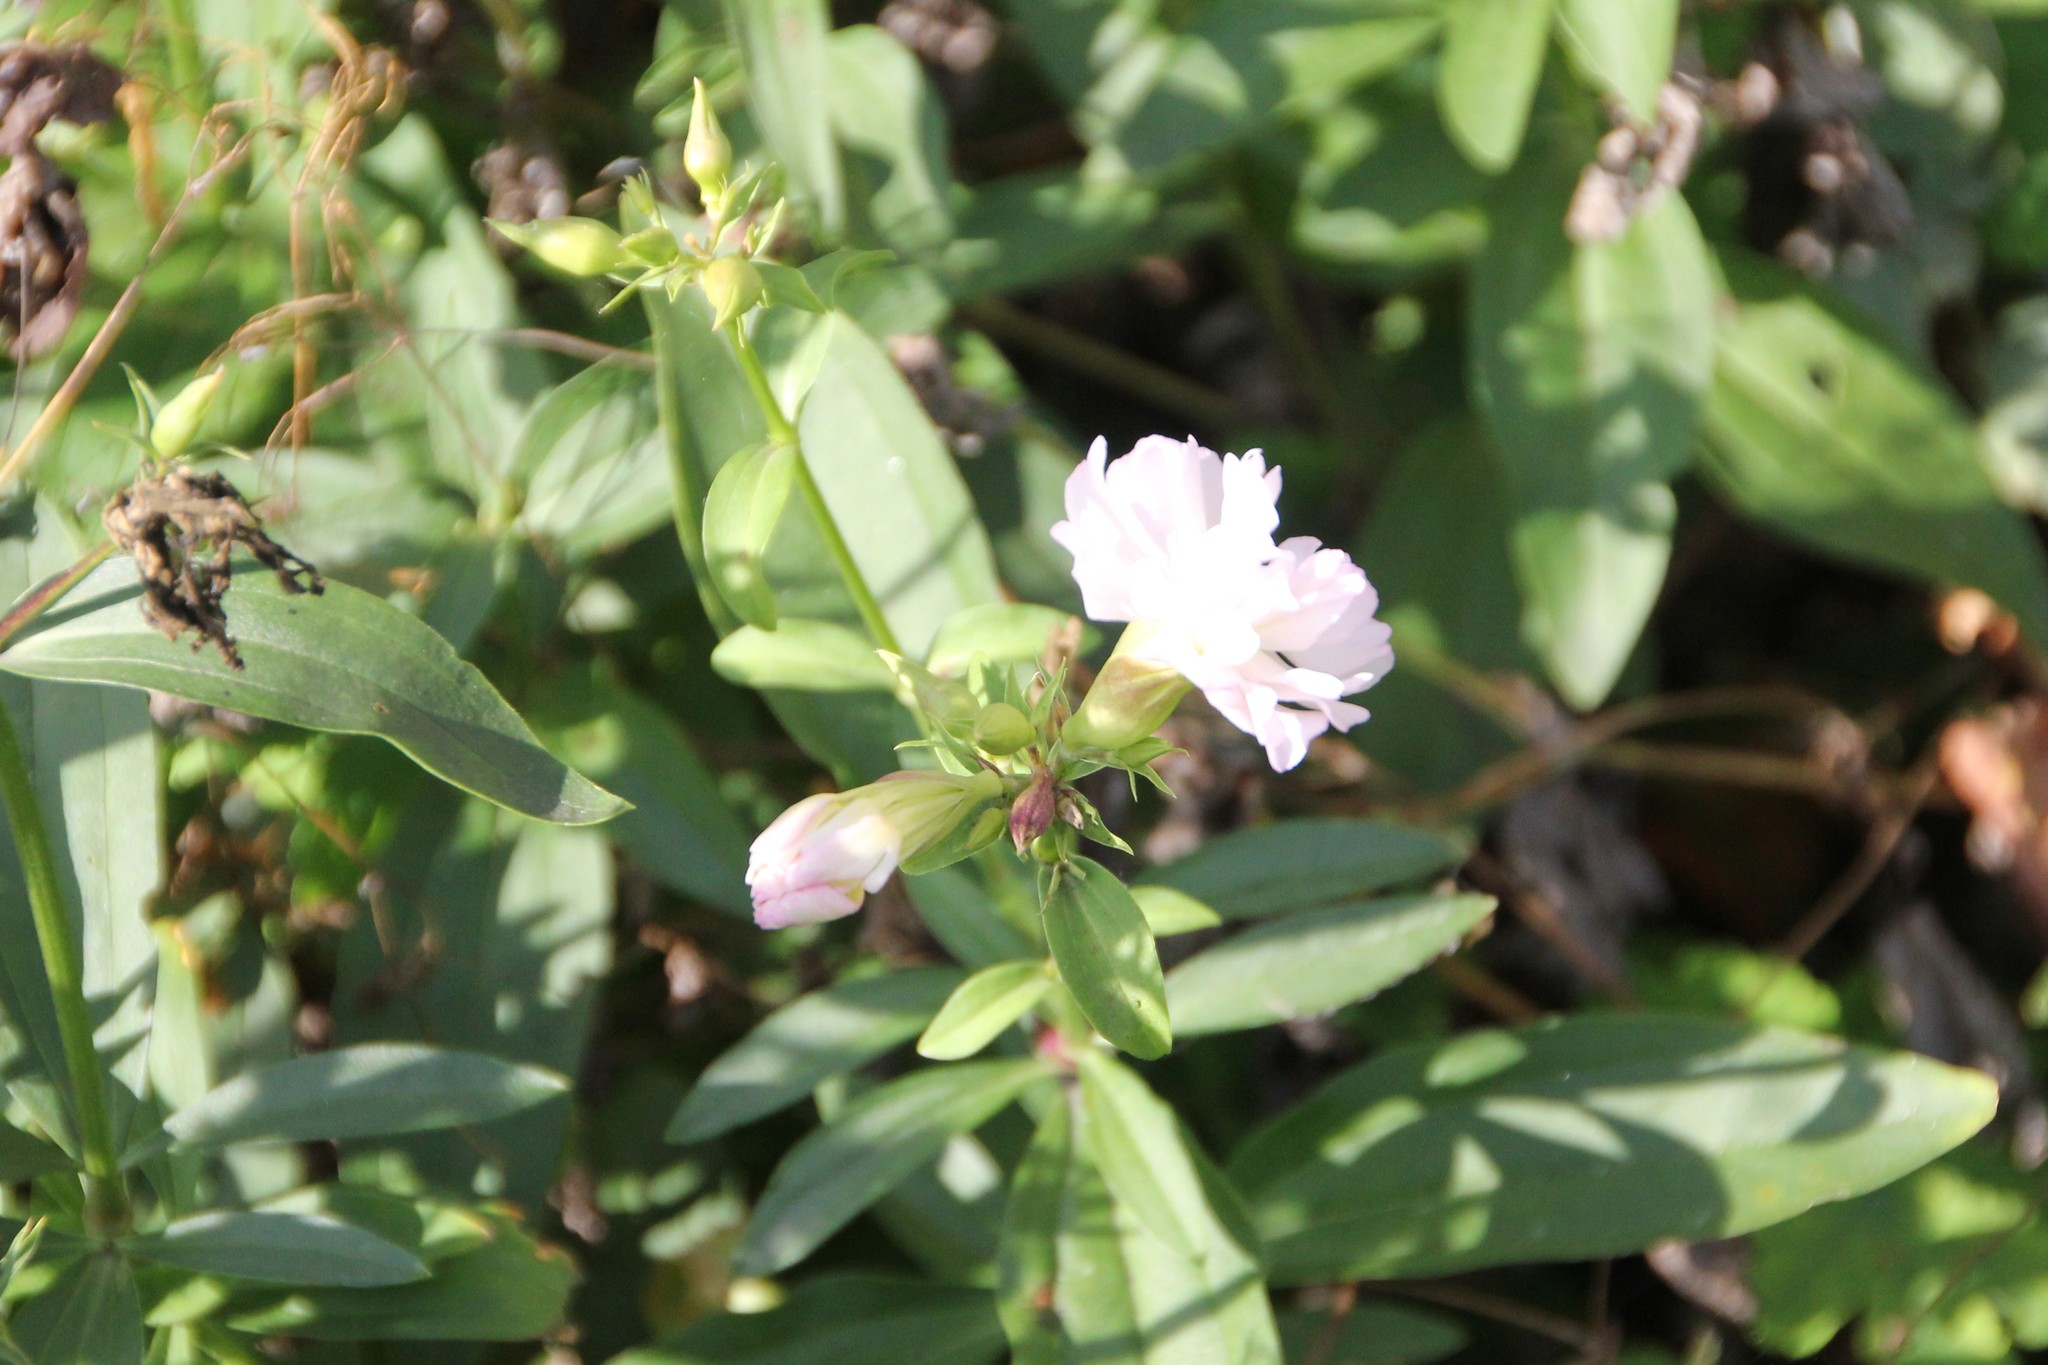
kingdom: Plantae
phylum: Tracheophyta
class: Magnoliopsida
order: Caryophyllales
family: Caryophyllaceae
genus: Saponaria
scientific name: Saponaria officinalis
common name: Soapwort
